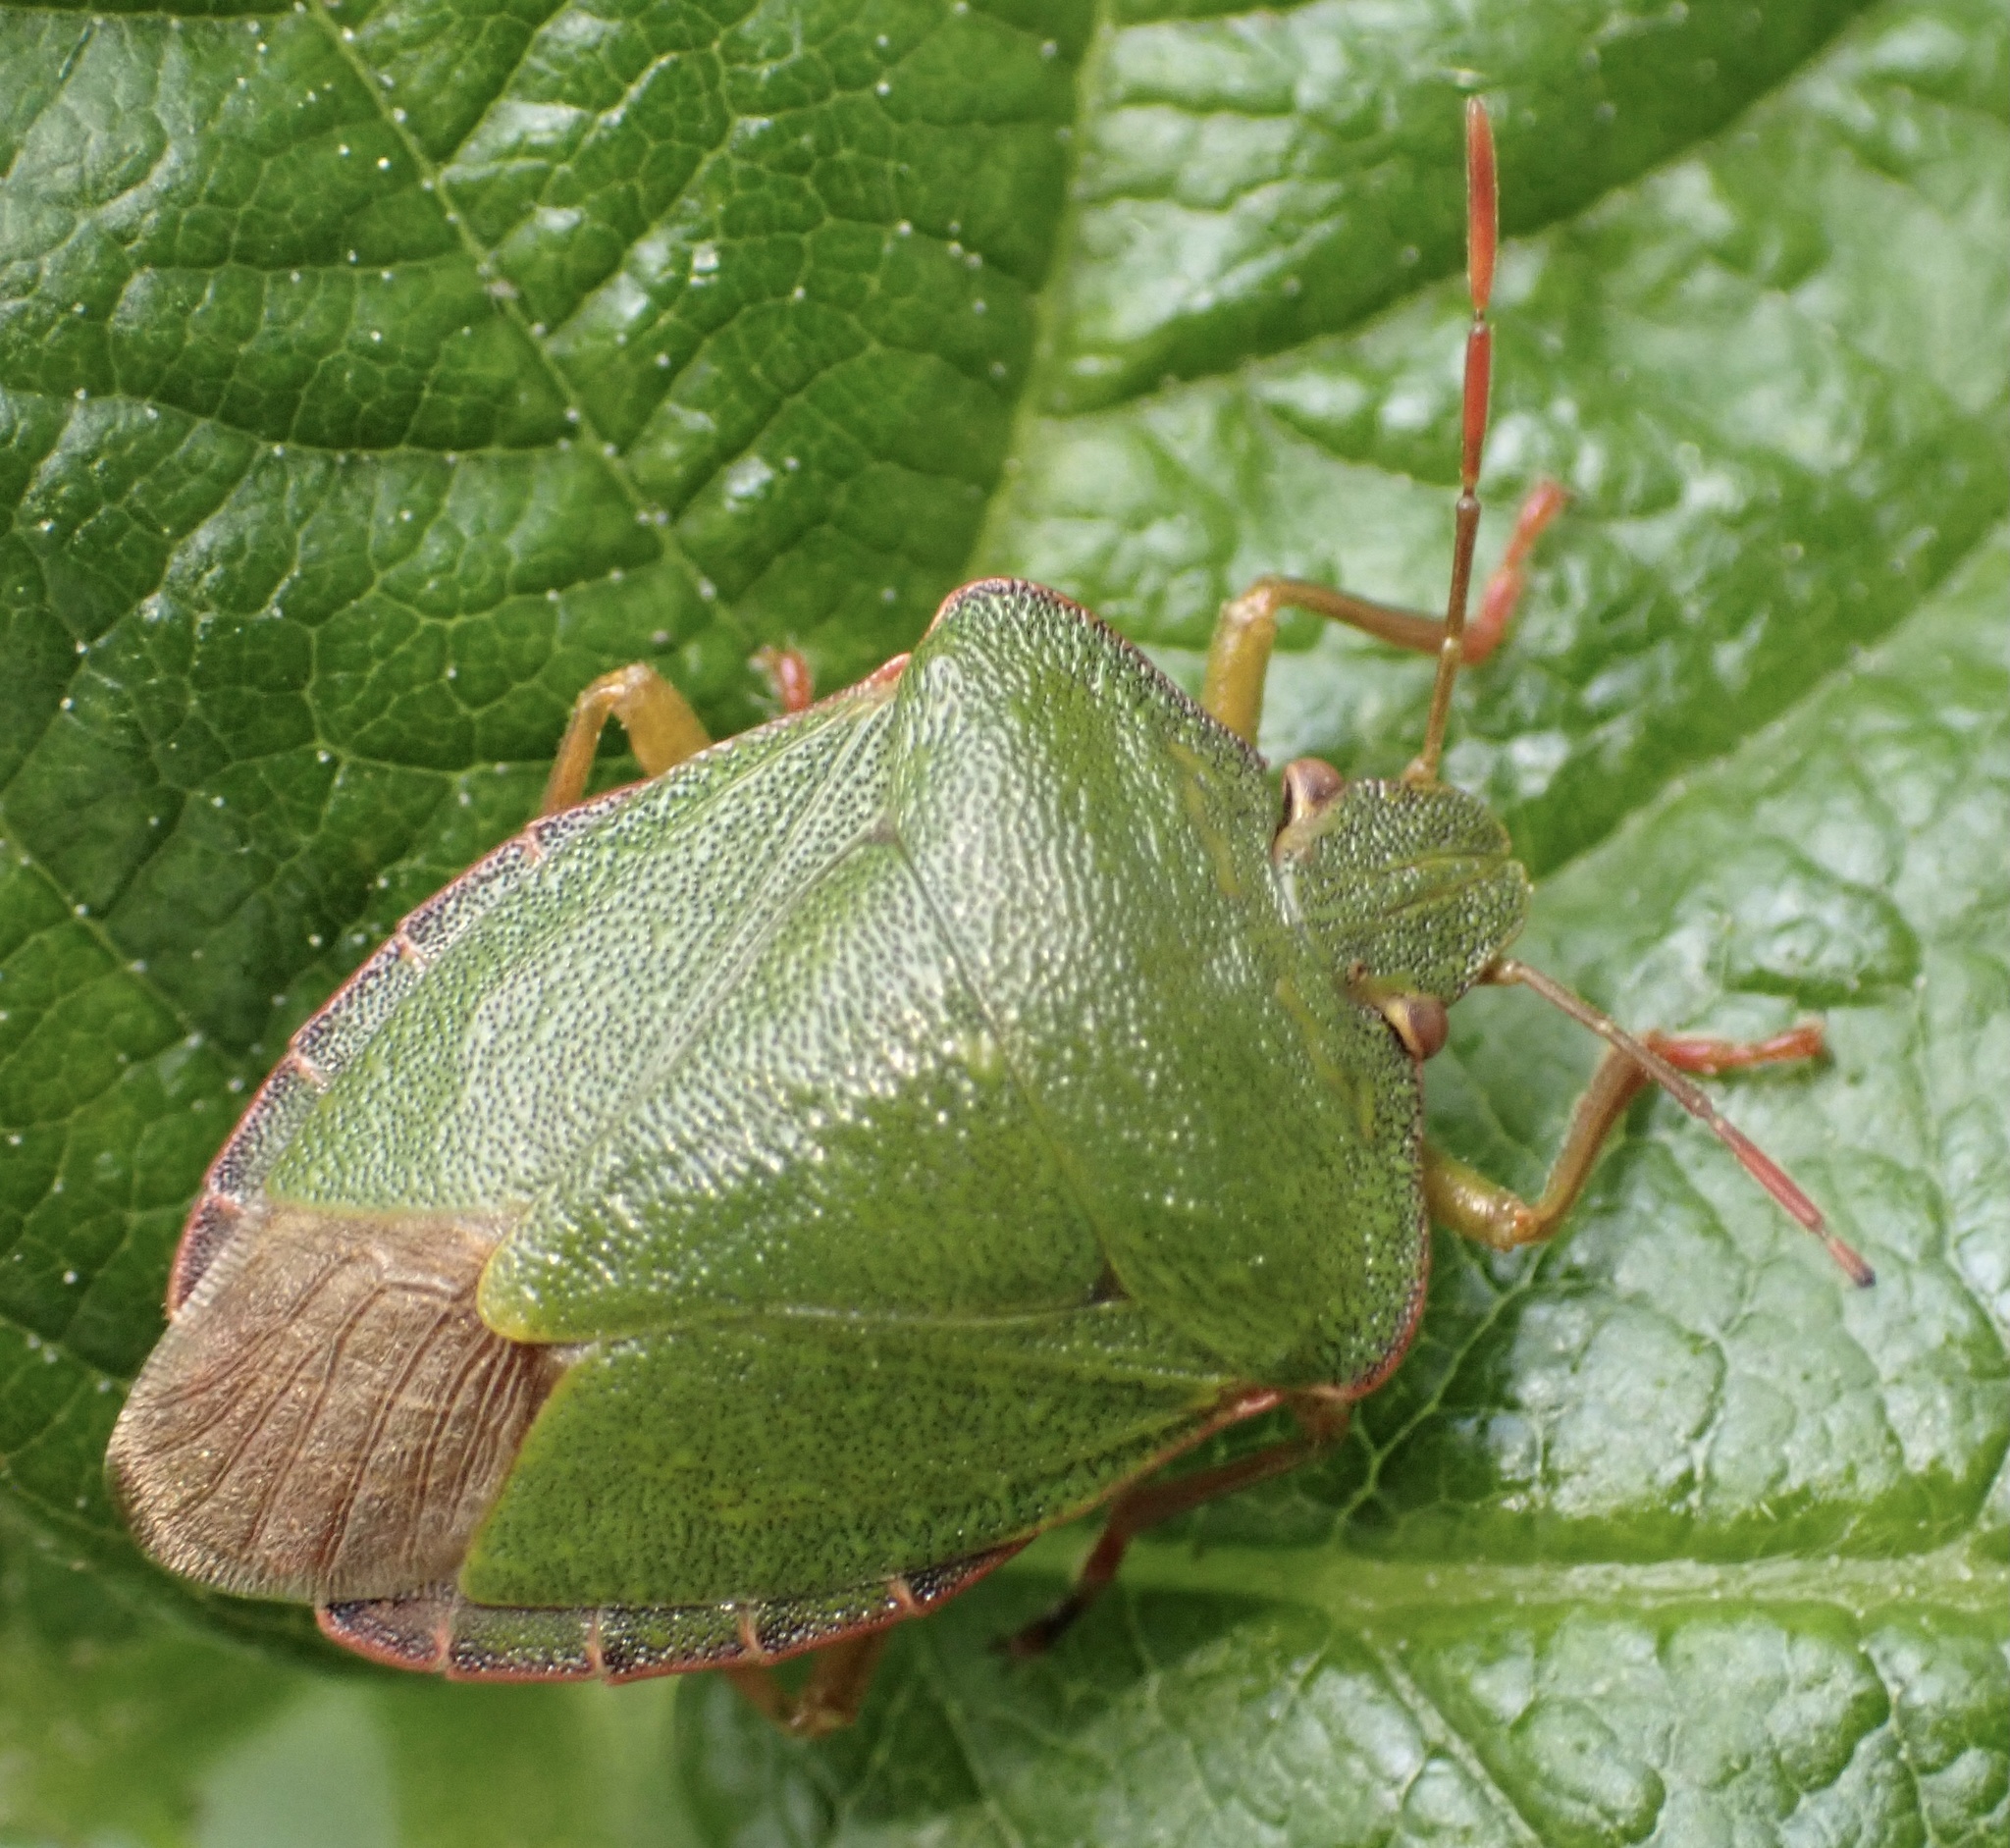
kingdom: Animalia
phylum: Arthropoda
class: Insecta
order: Hemiptera
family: Pentatomidae
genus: Palomena
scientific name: Palomena prasina
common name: Green shieldbug
